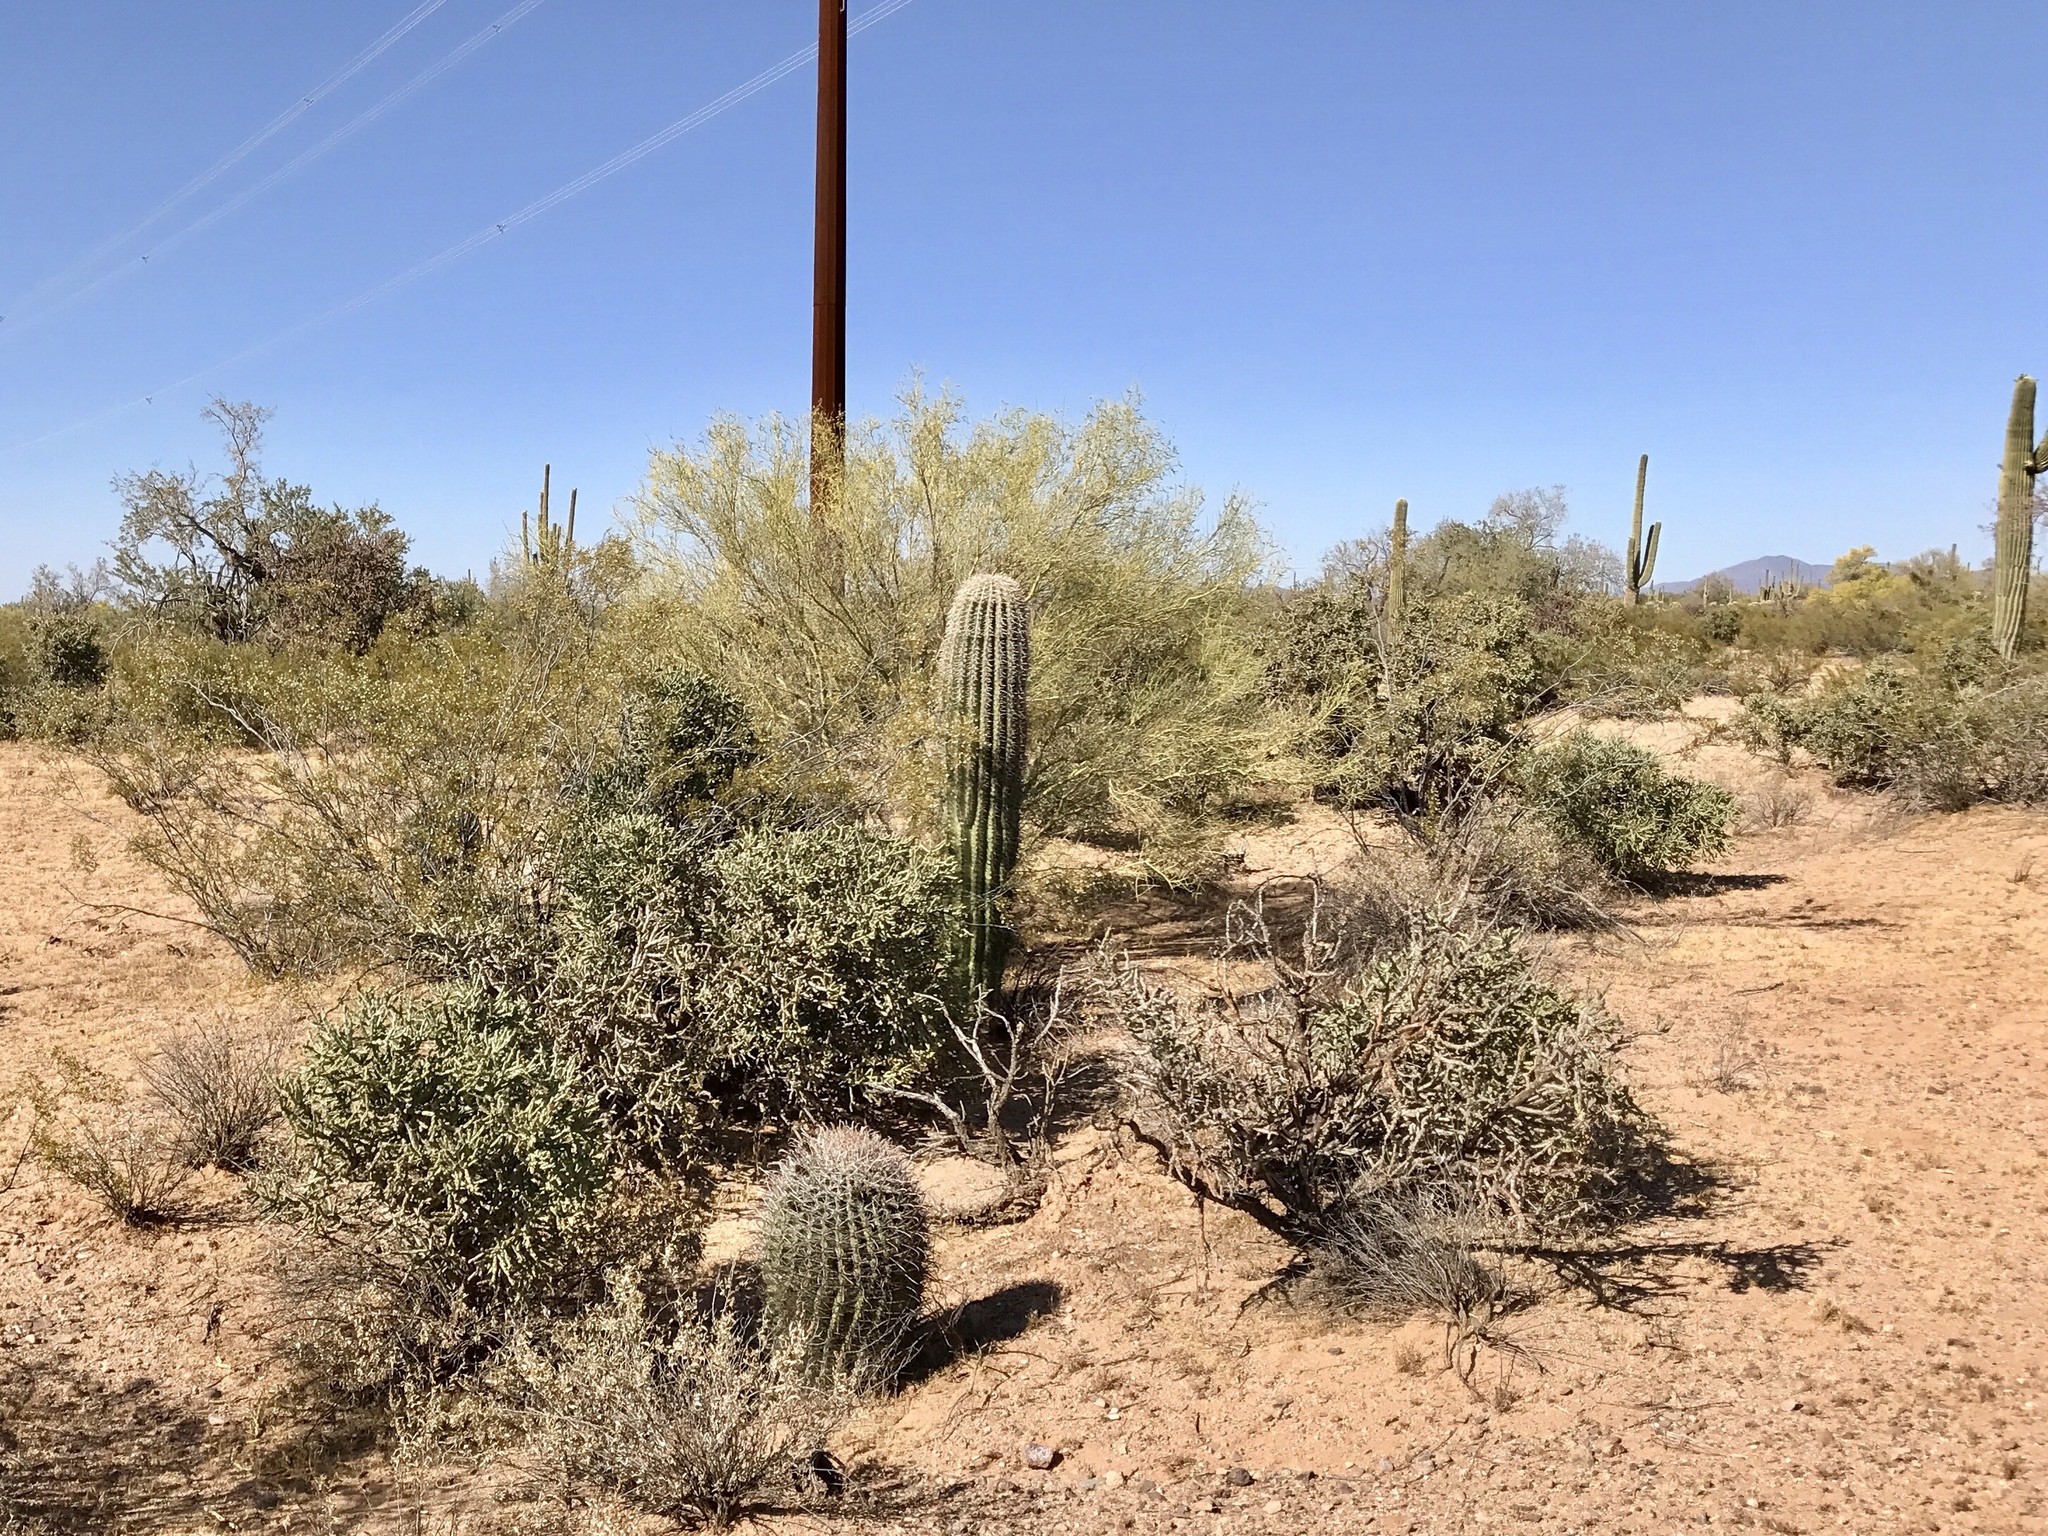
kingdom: Plantae
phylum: Tracheophyta
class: Magnoliopsida
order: Caryophyllales
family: Cactaceae
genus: Cylindropuntia
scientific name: Cylindropuntia arbuscula
